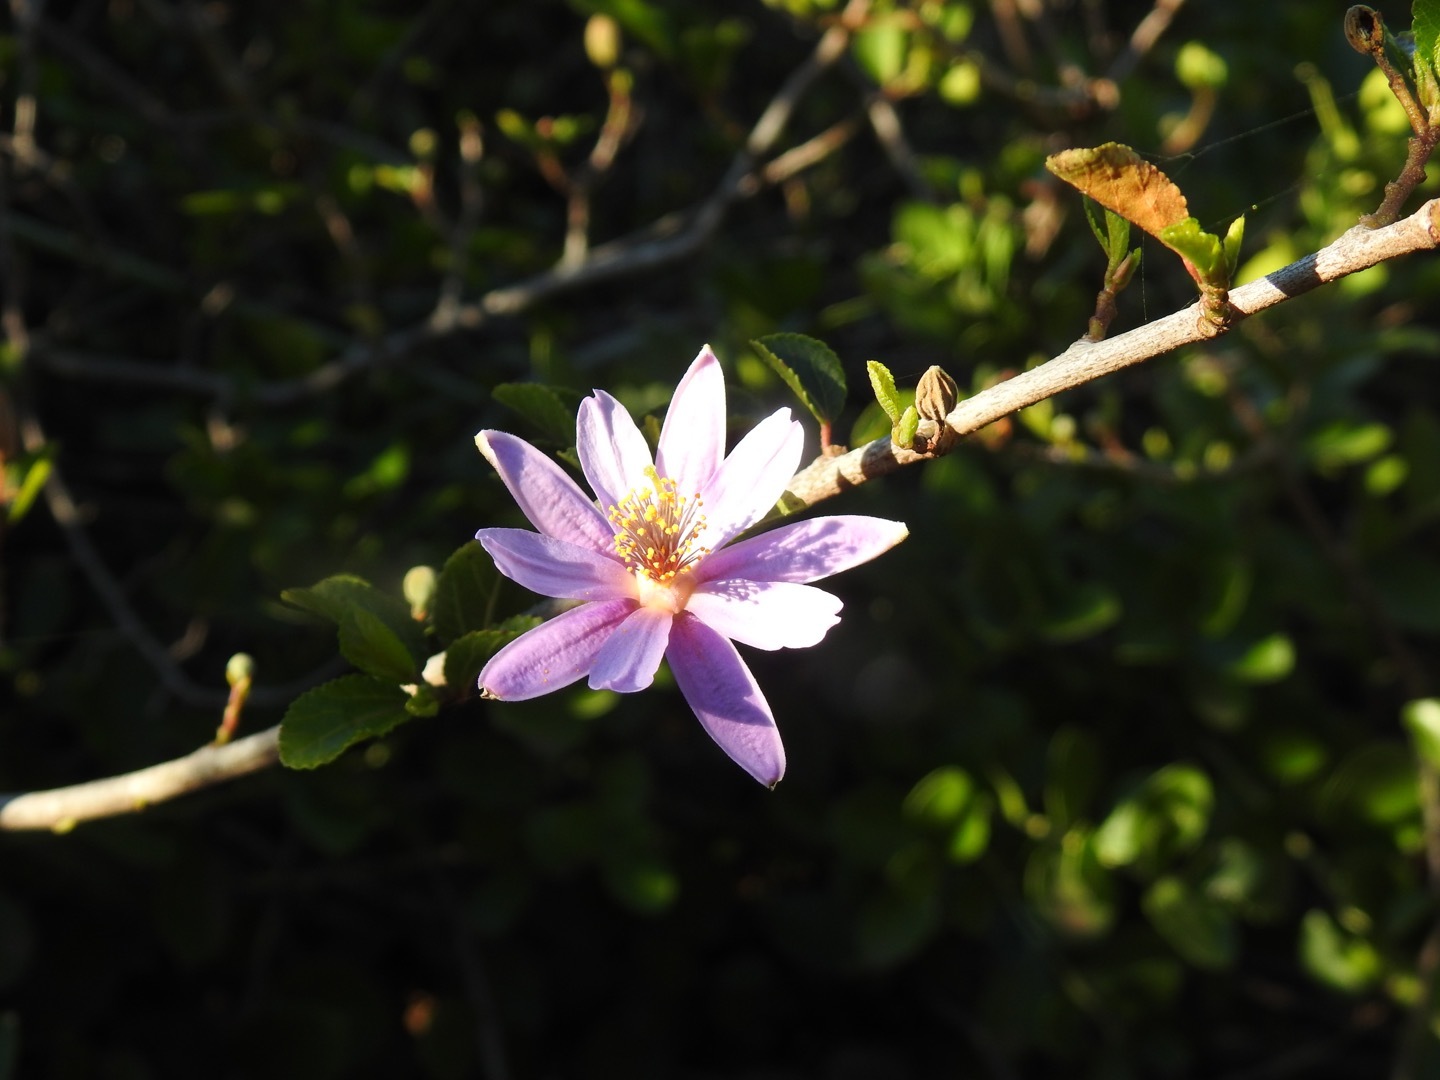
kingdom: Plantae
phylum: Tracheophyta
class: Magnoliopsida
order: Malvales
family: Malvaceae
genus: Grewia
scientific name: Grewia occidentalis
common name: Crossberry
